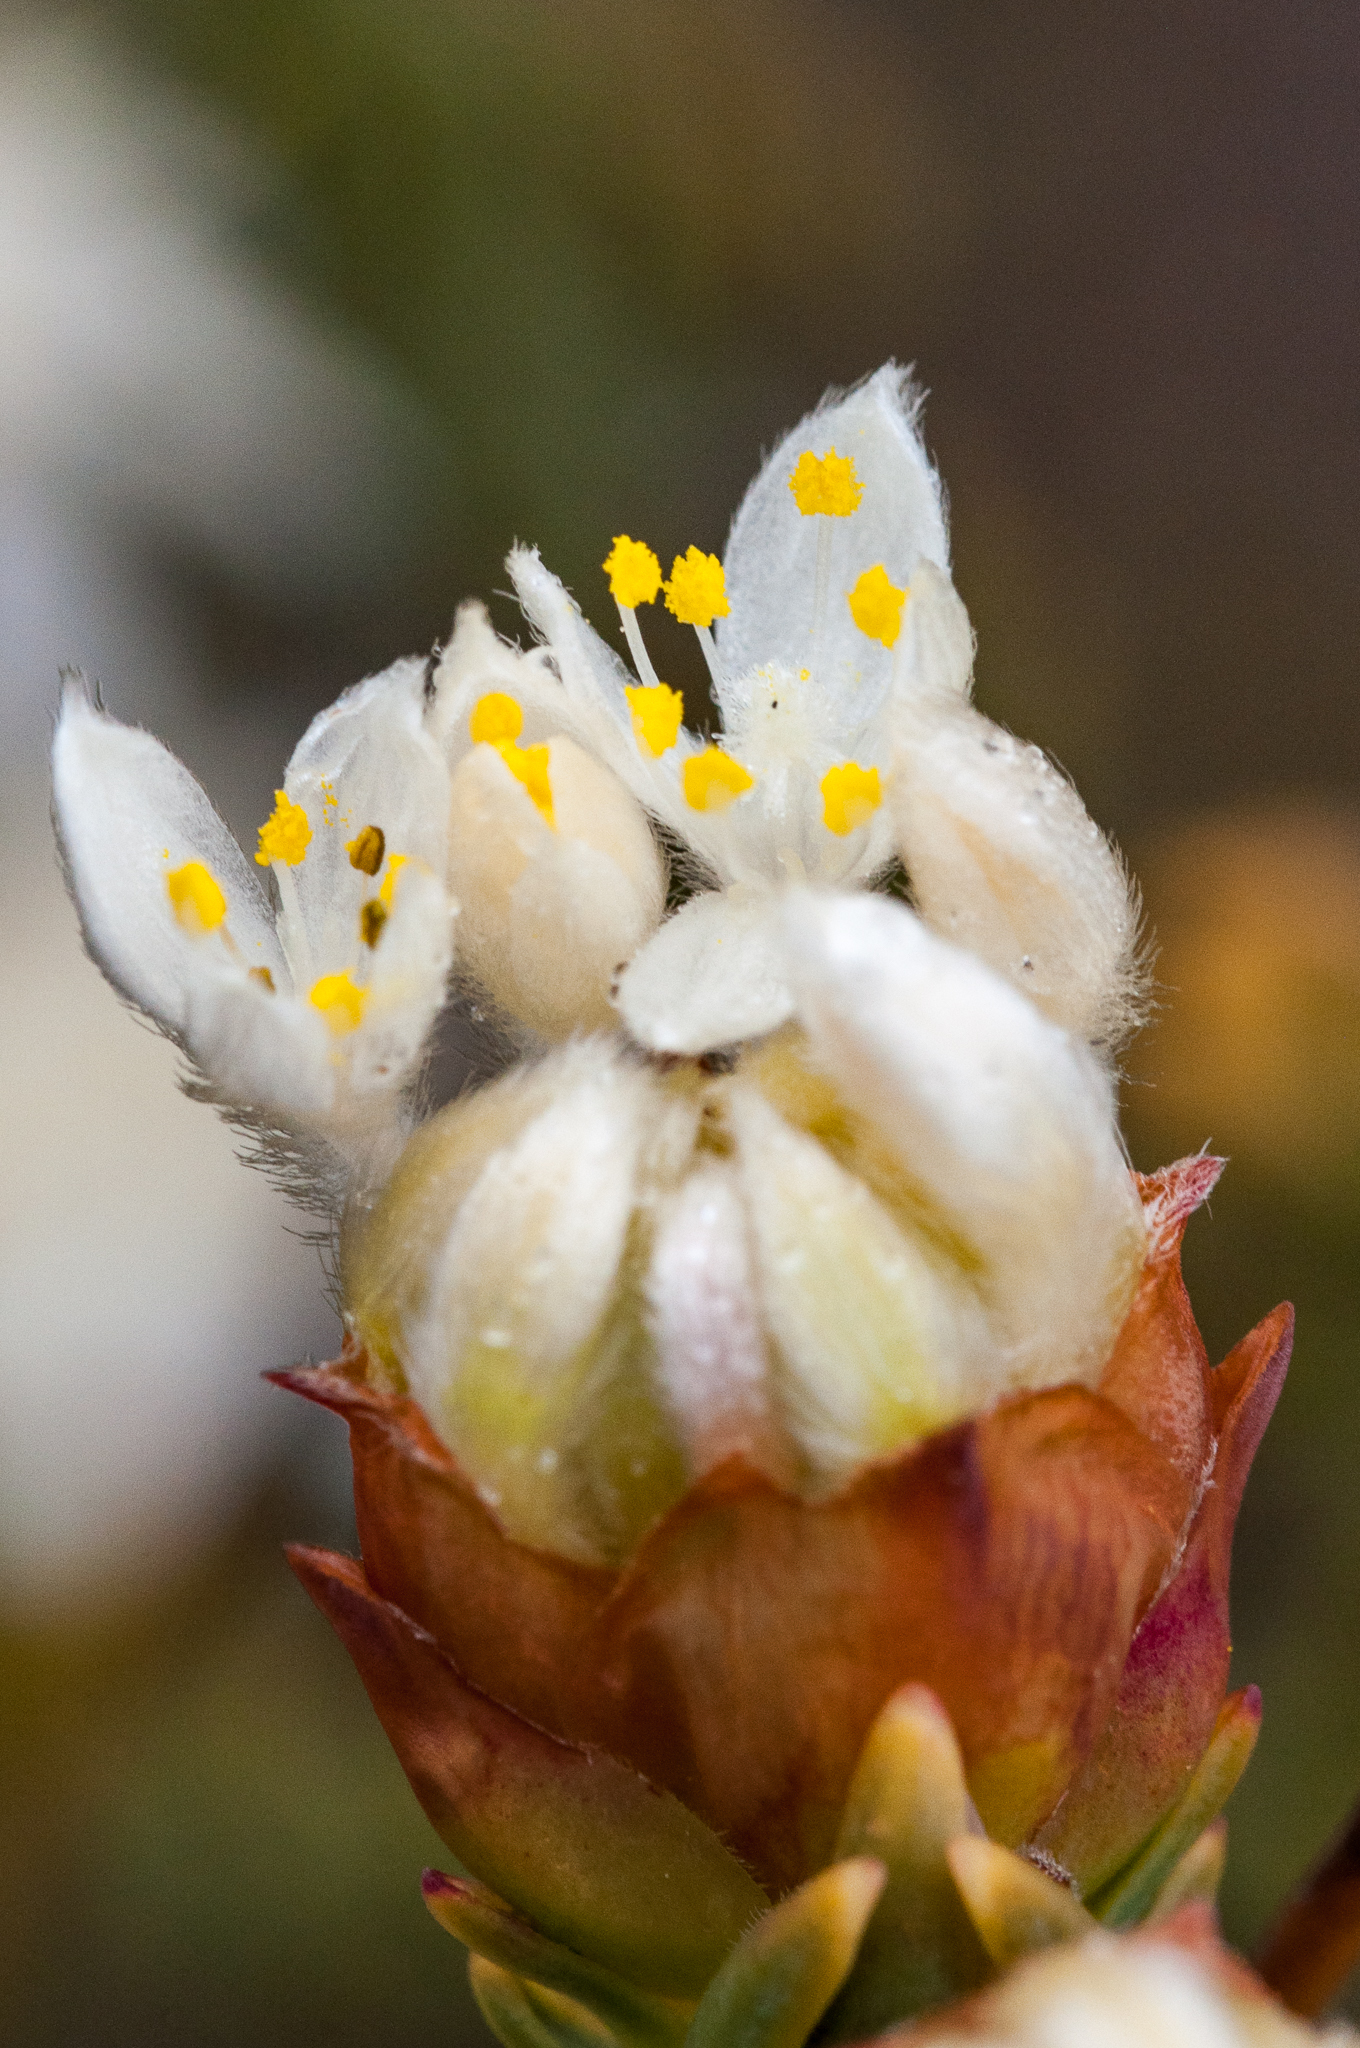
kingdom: Plantae
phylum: Tracheophyta
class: Magnoliopsida
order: Malvales
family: Thymelaeaceae
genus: Lachnaea
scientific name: Lachnaea naviculifolia
